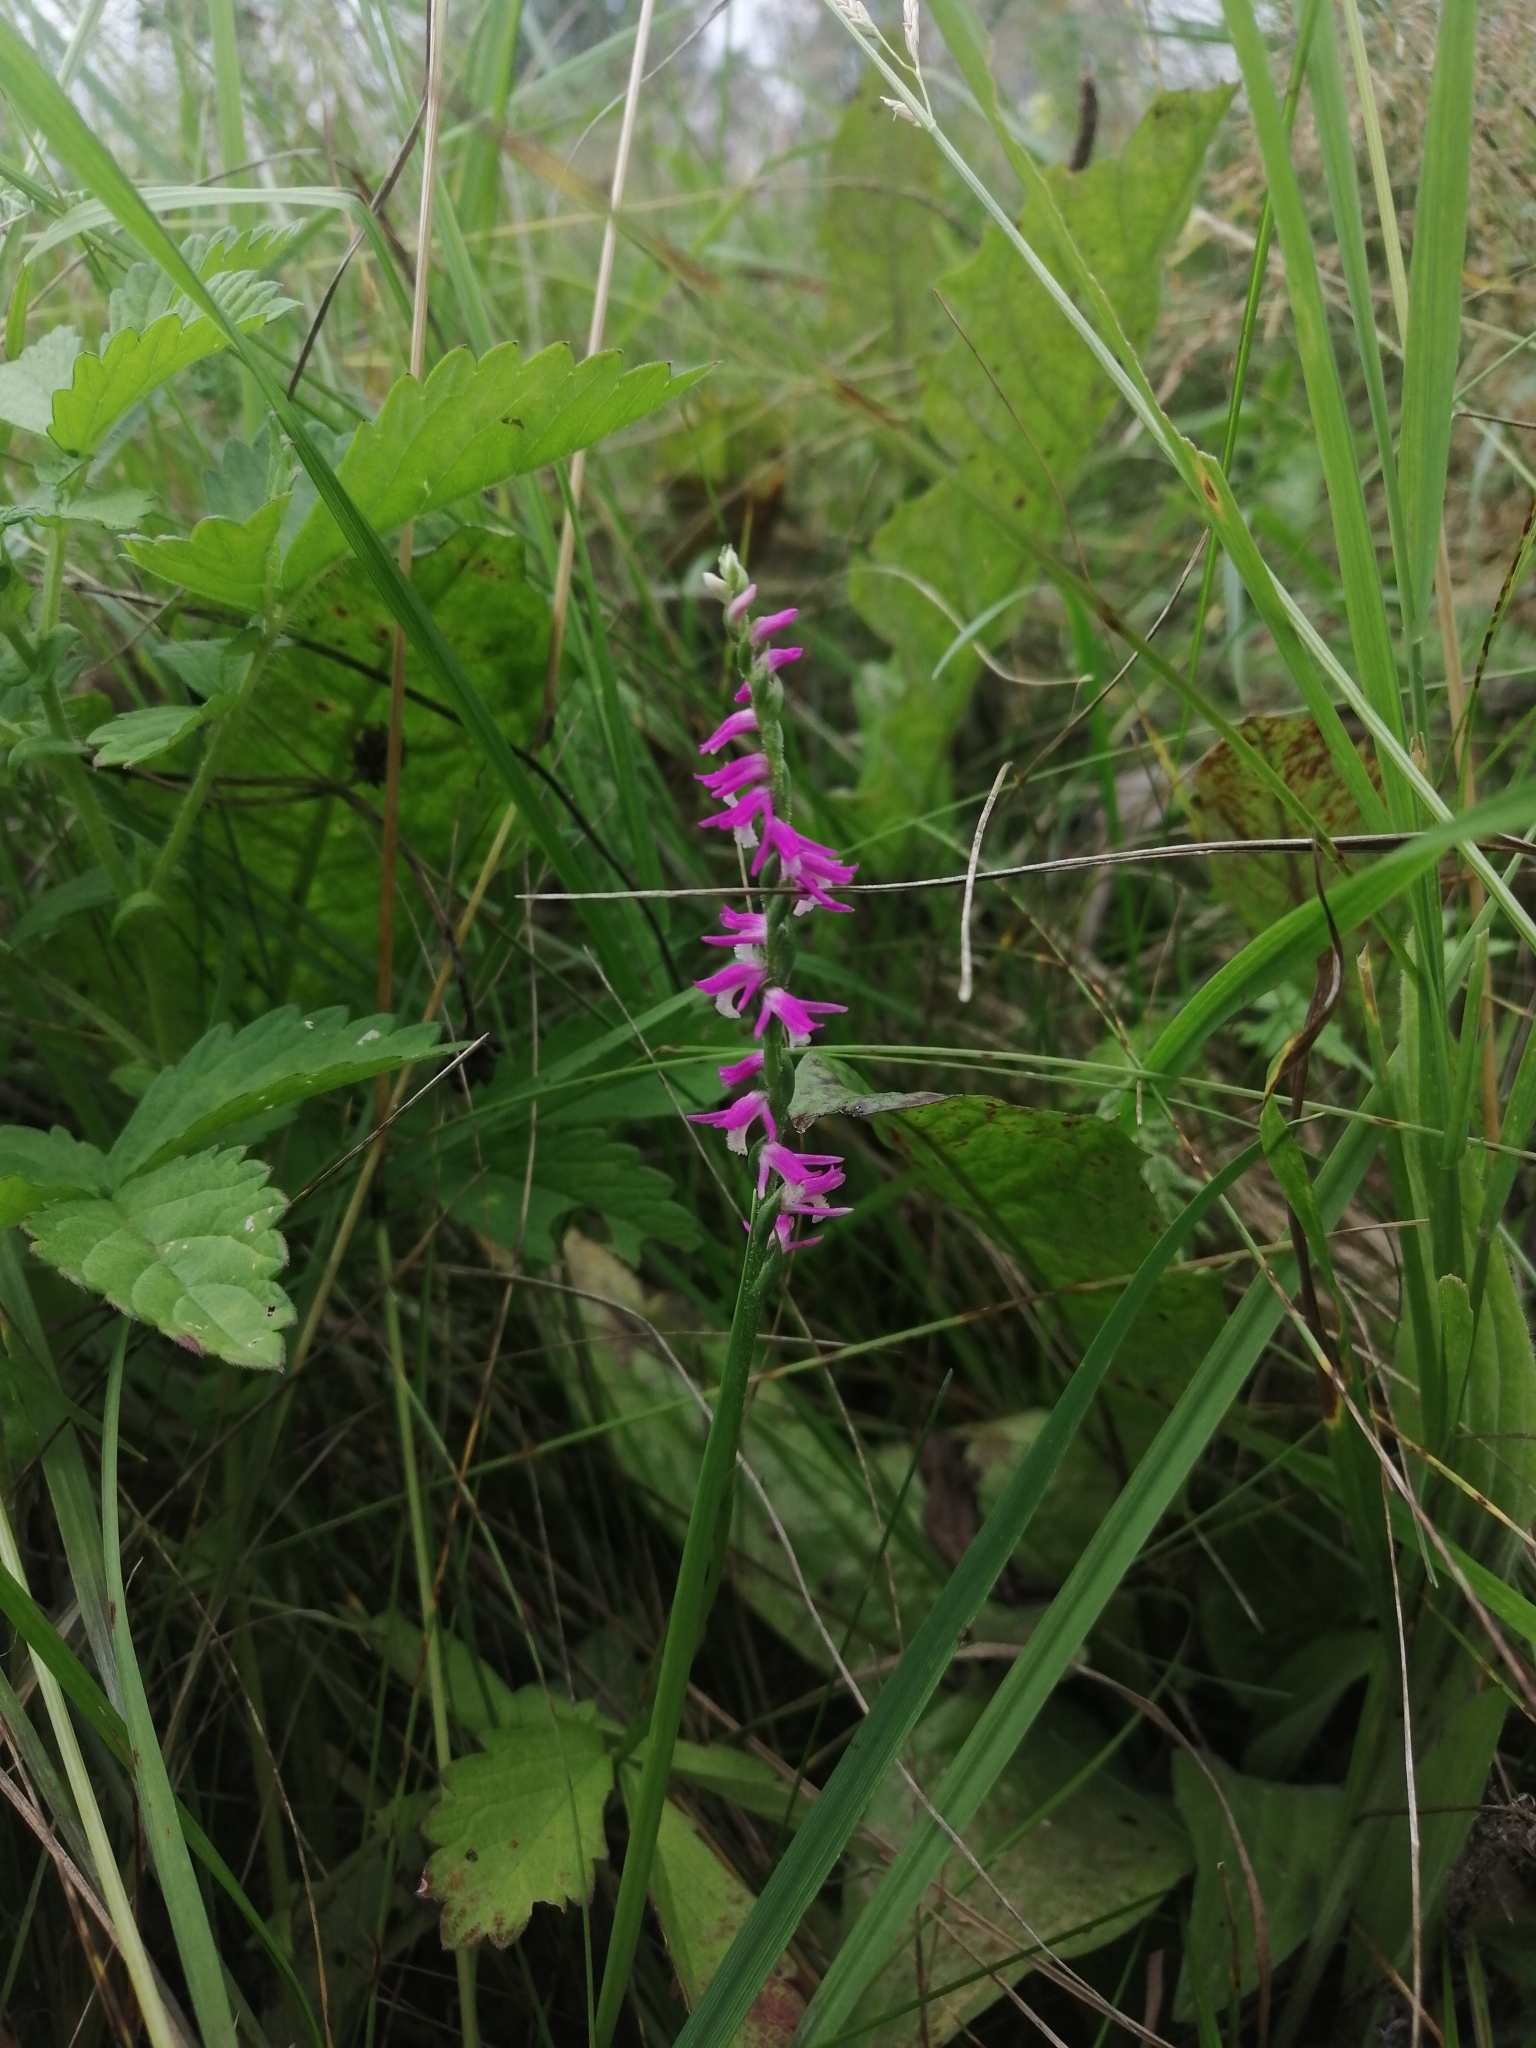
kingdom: Plantae
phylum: Tracheophyta
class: Liliopsida
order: Asparagales
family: Orchidaceae
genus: Spiranthes
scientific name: Spiranthes australis
